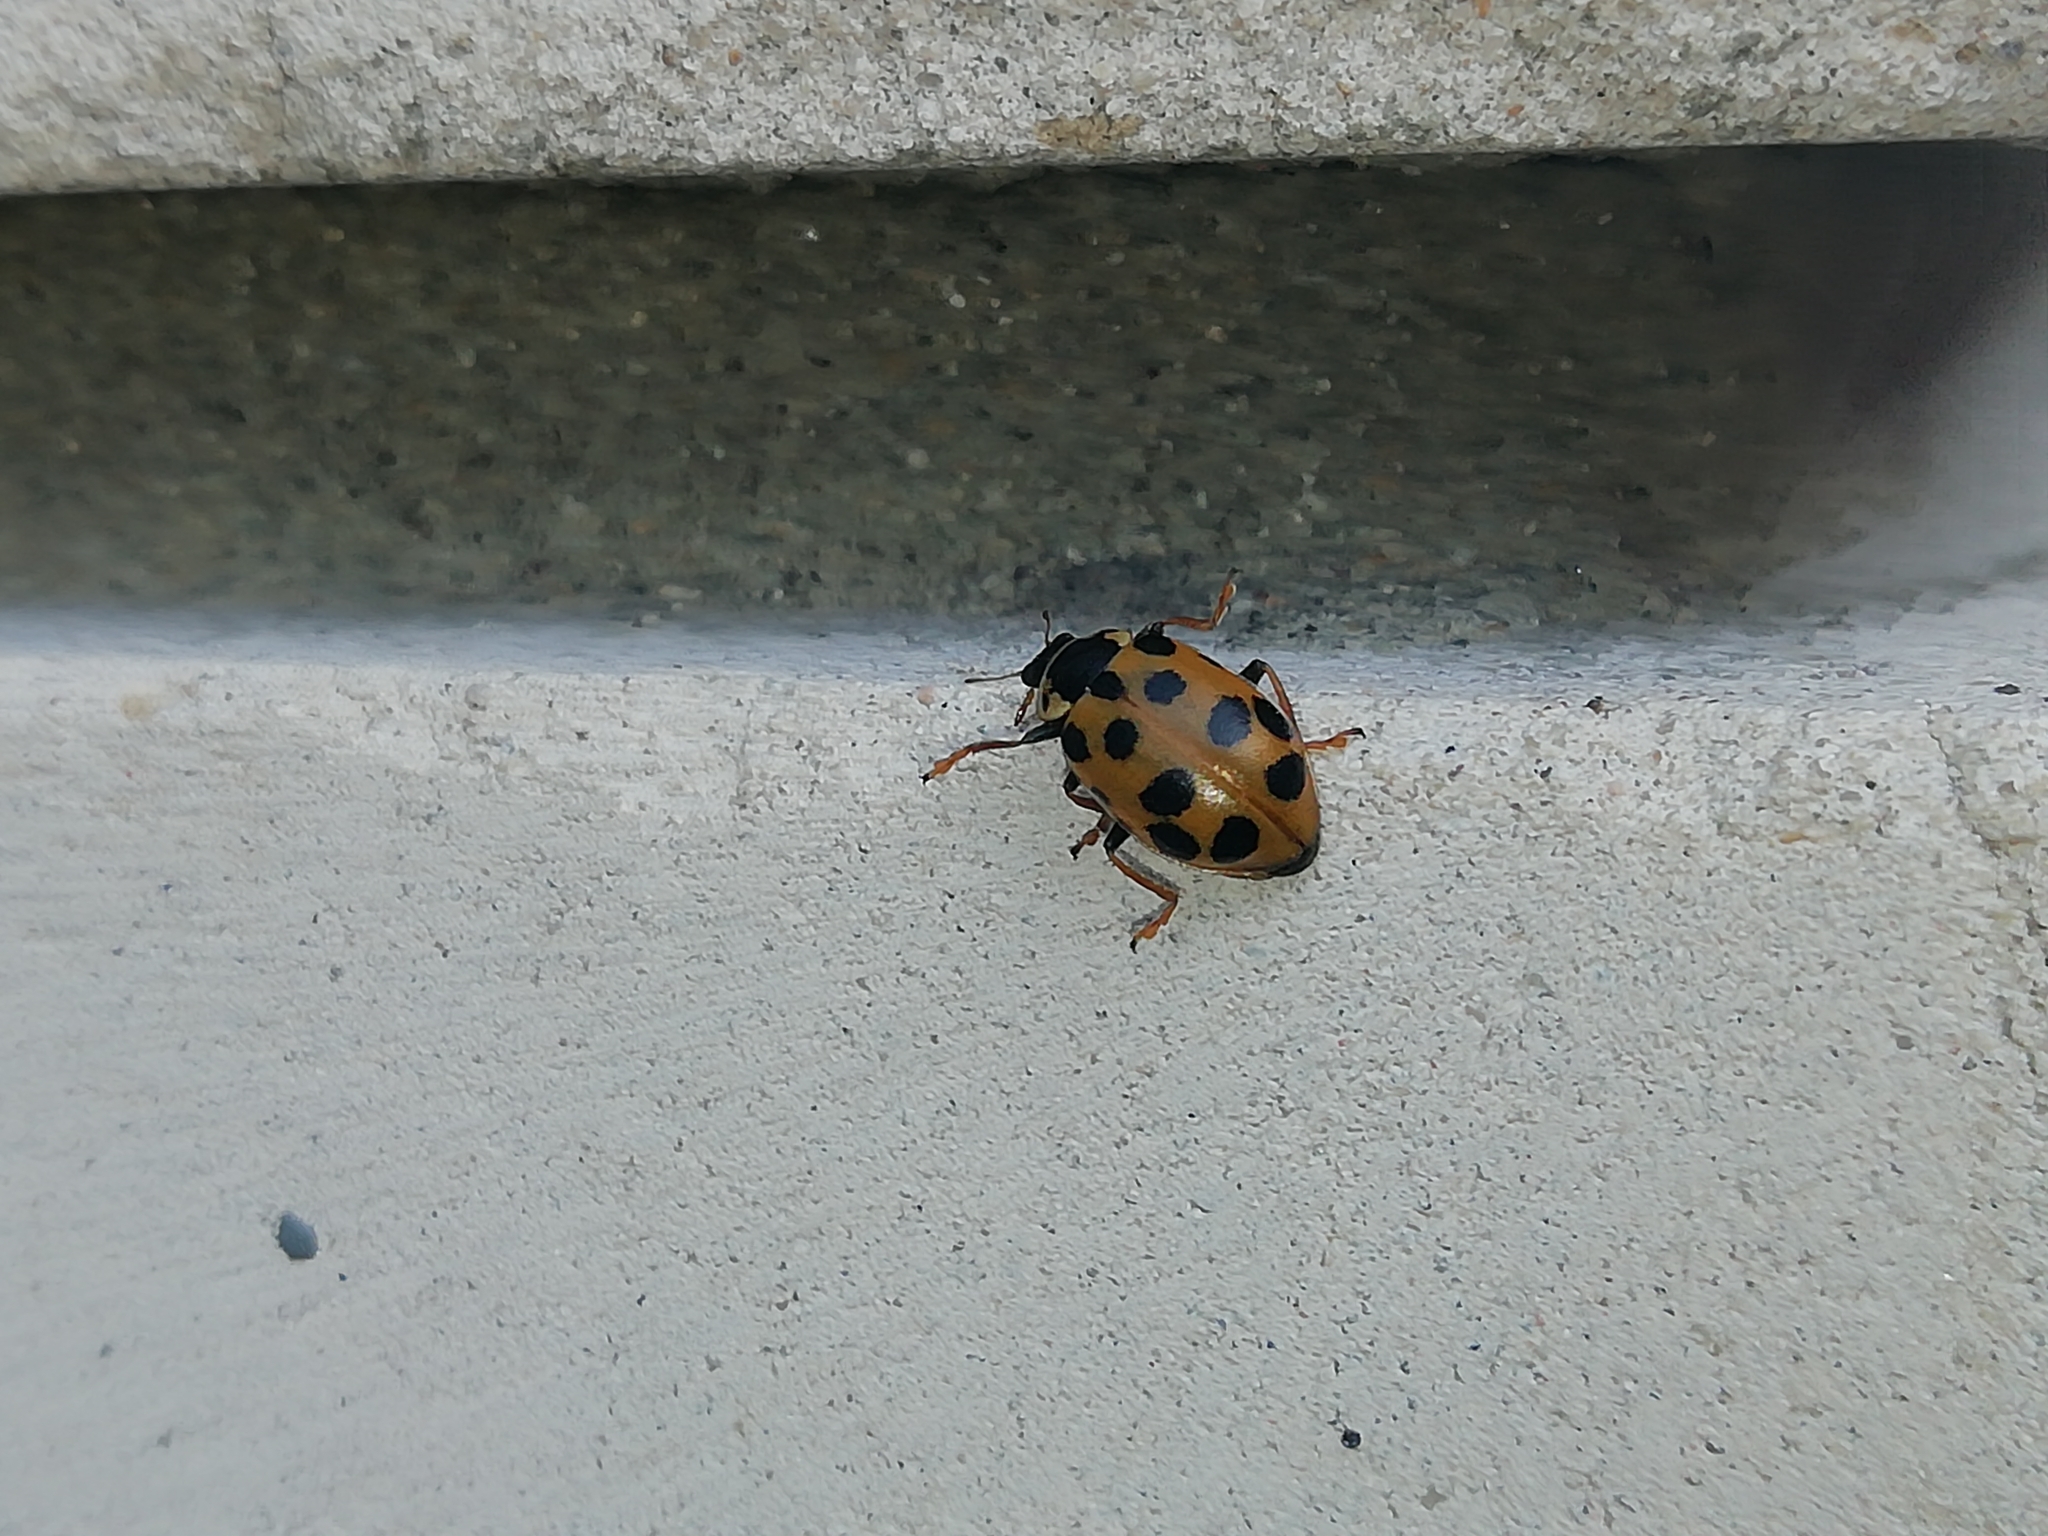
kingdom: Animalia
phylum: Arthropoda
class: Insecta
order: Coleoptera
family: Coccinellidae
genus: Hippodamia
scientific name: Hippodamia tredecimpunctata
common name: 13-spot ladybird
